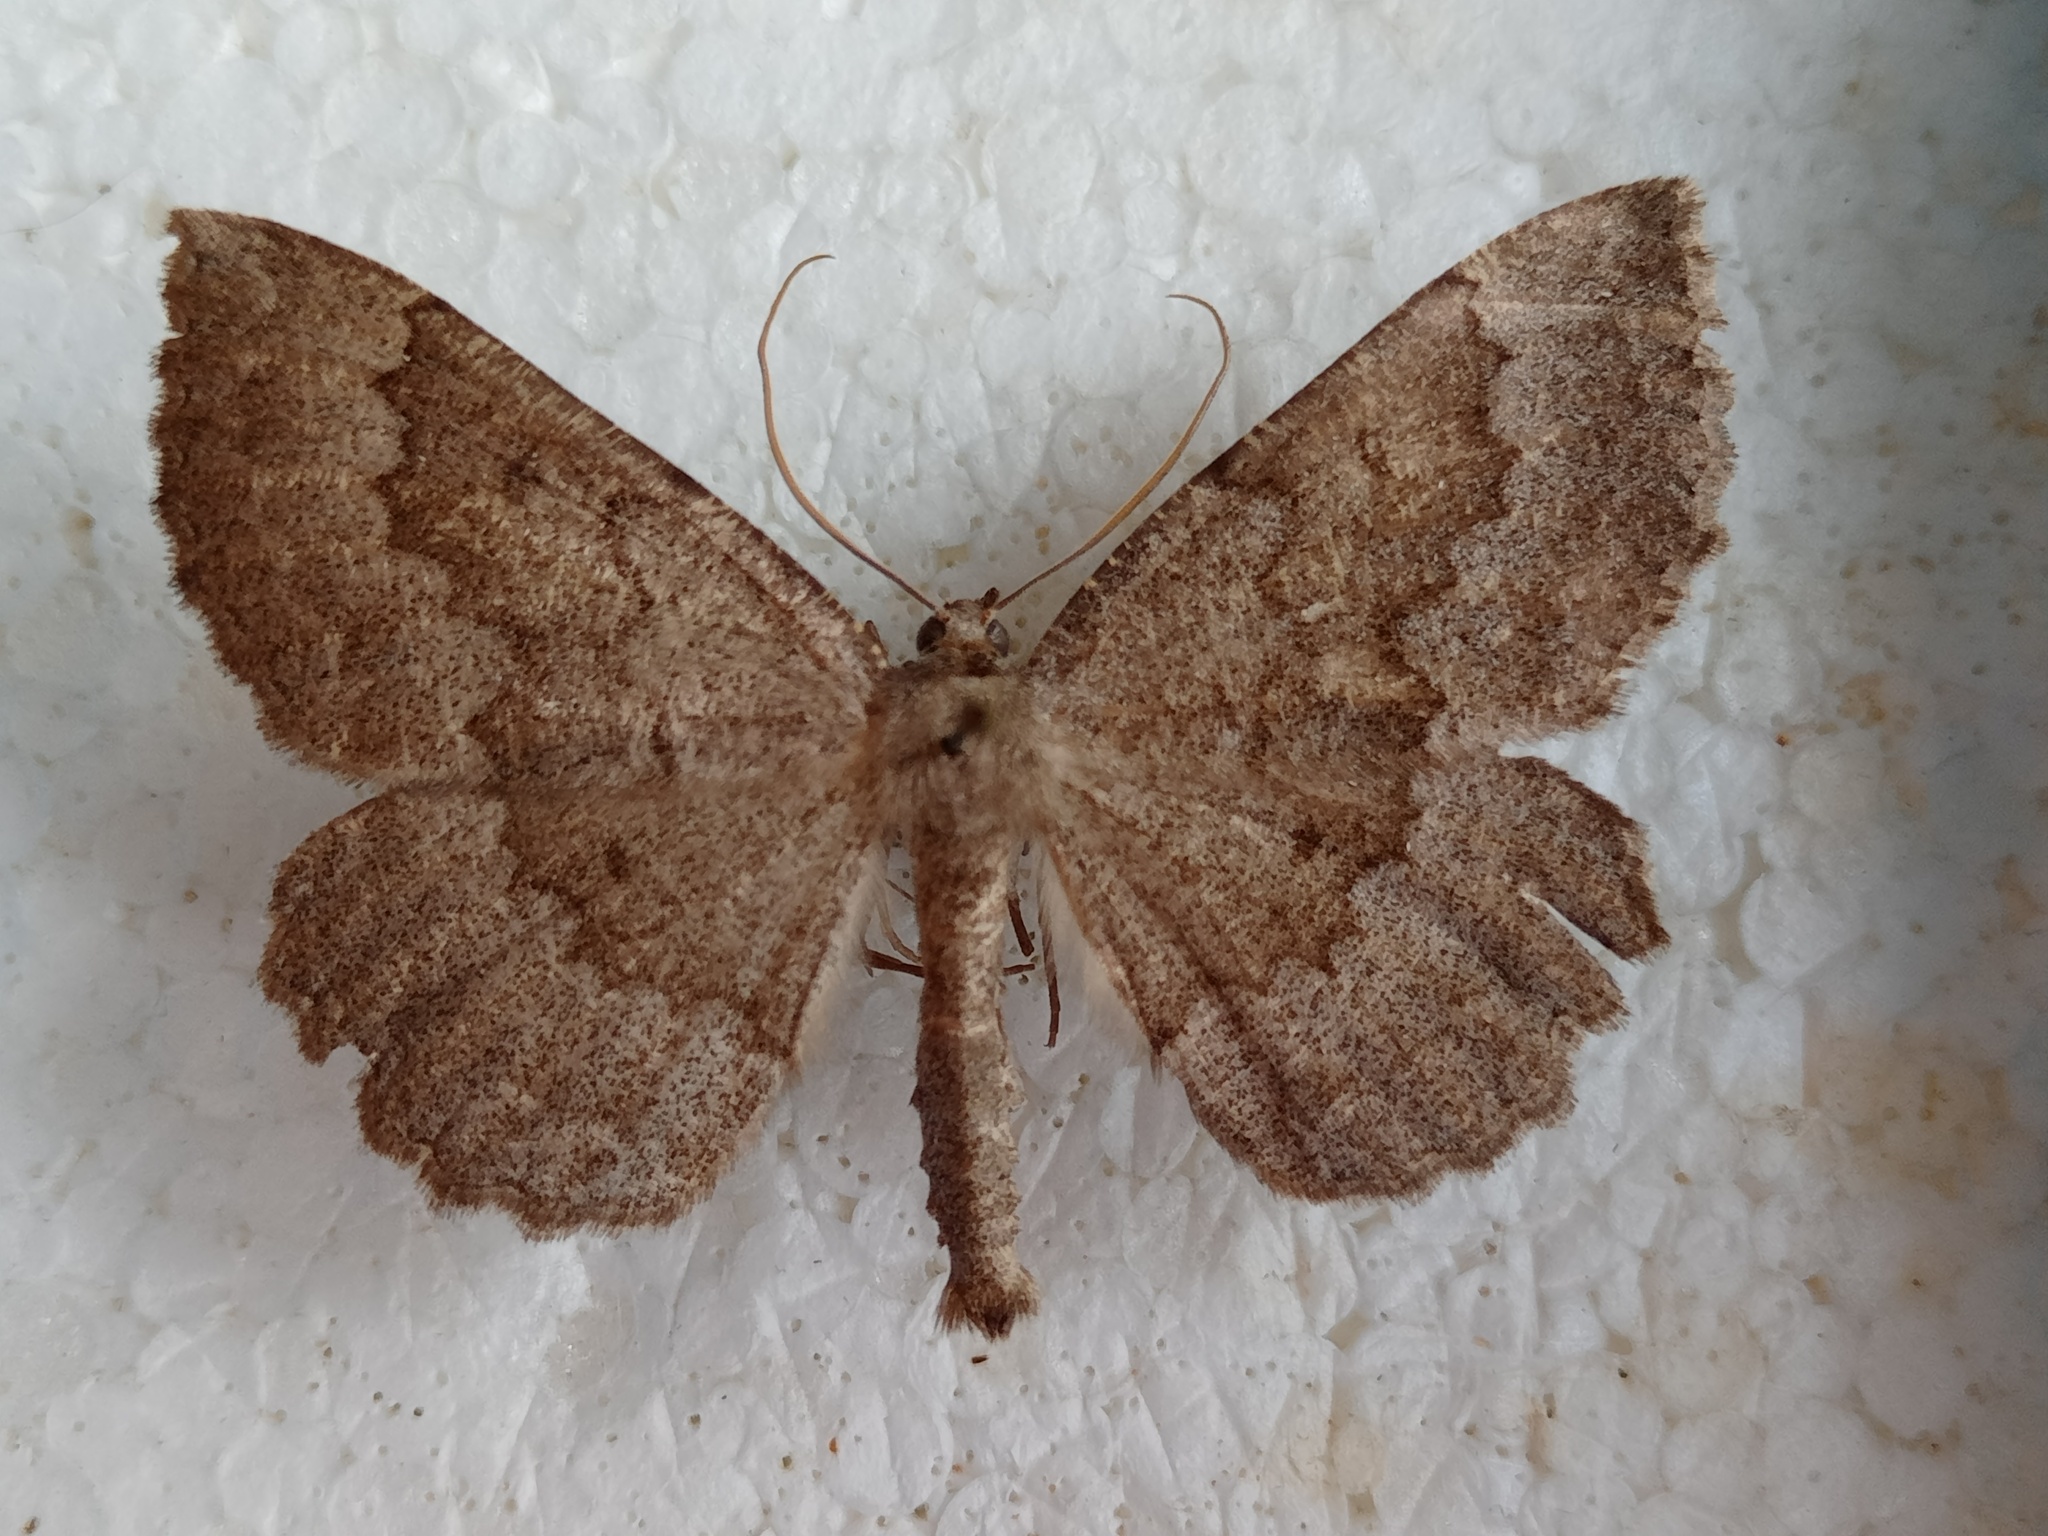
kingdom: Animalia
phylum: Arthropoda
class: Insecta
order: Lepidoptera
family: Geometridae
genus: Gnophos
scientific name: Gnophos furvata
